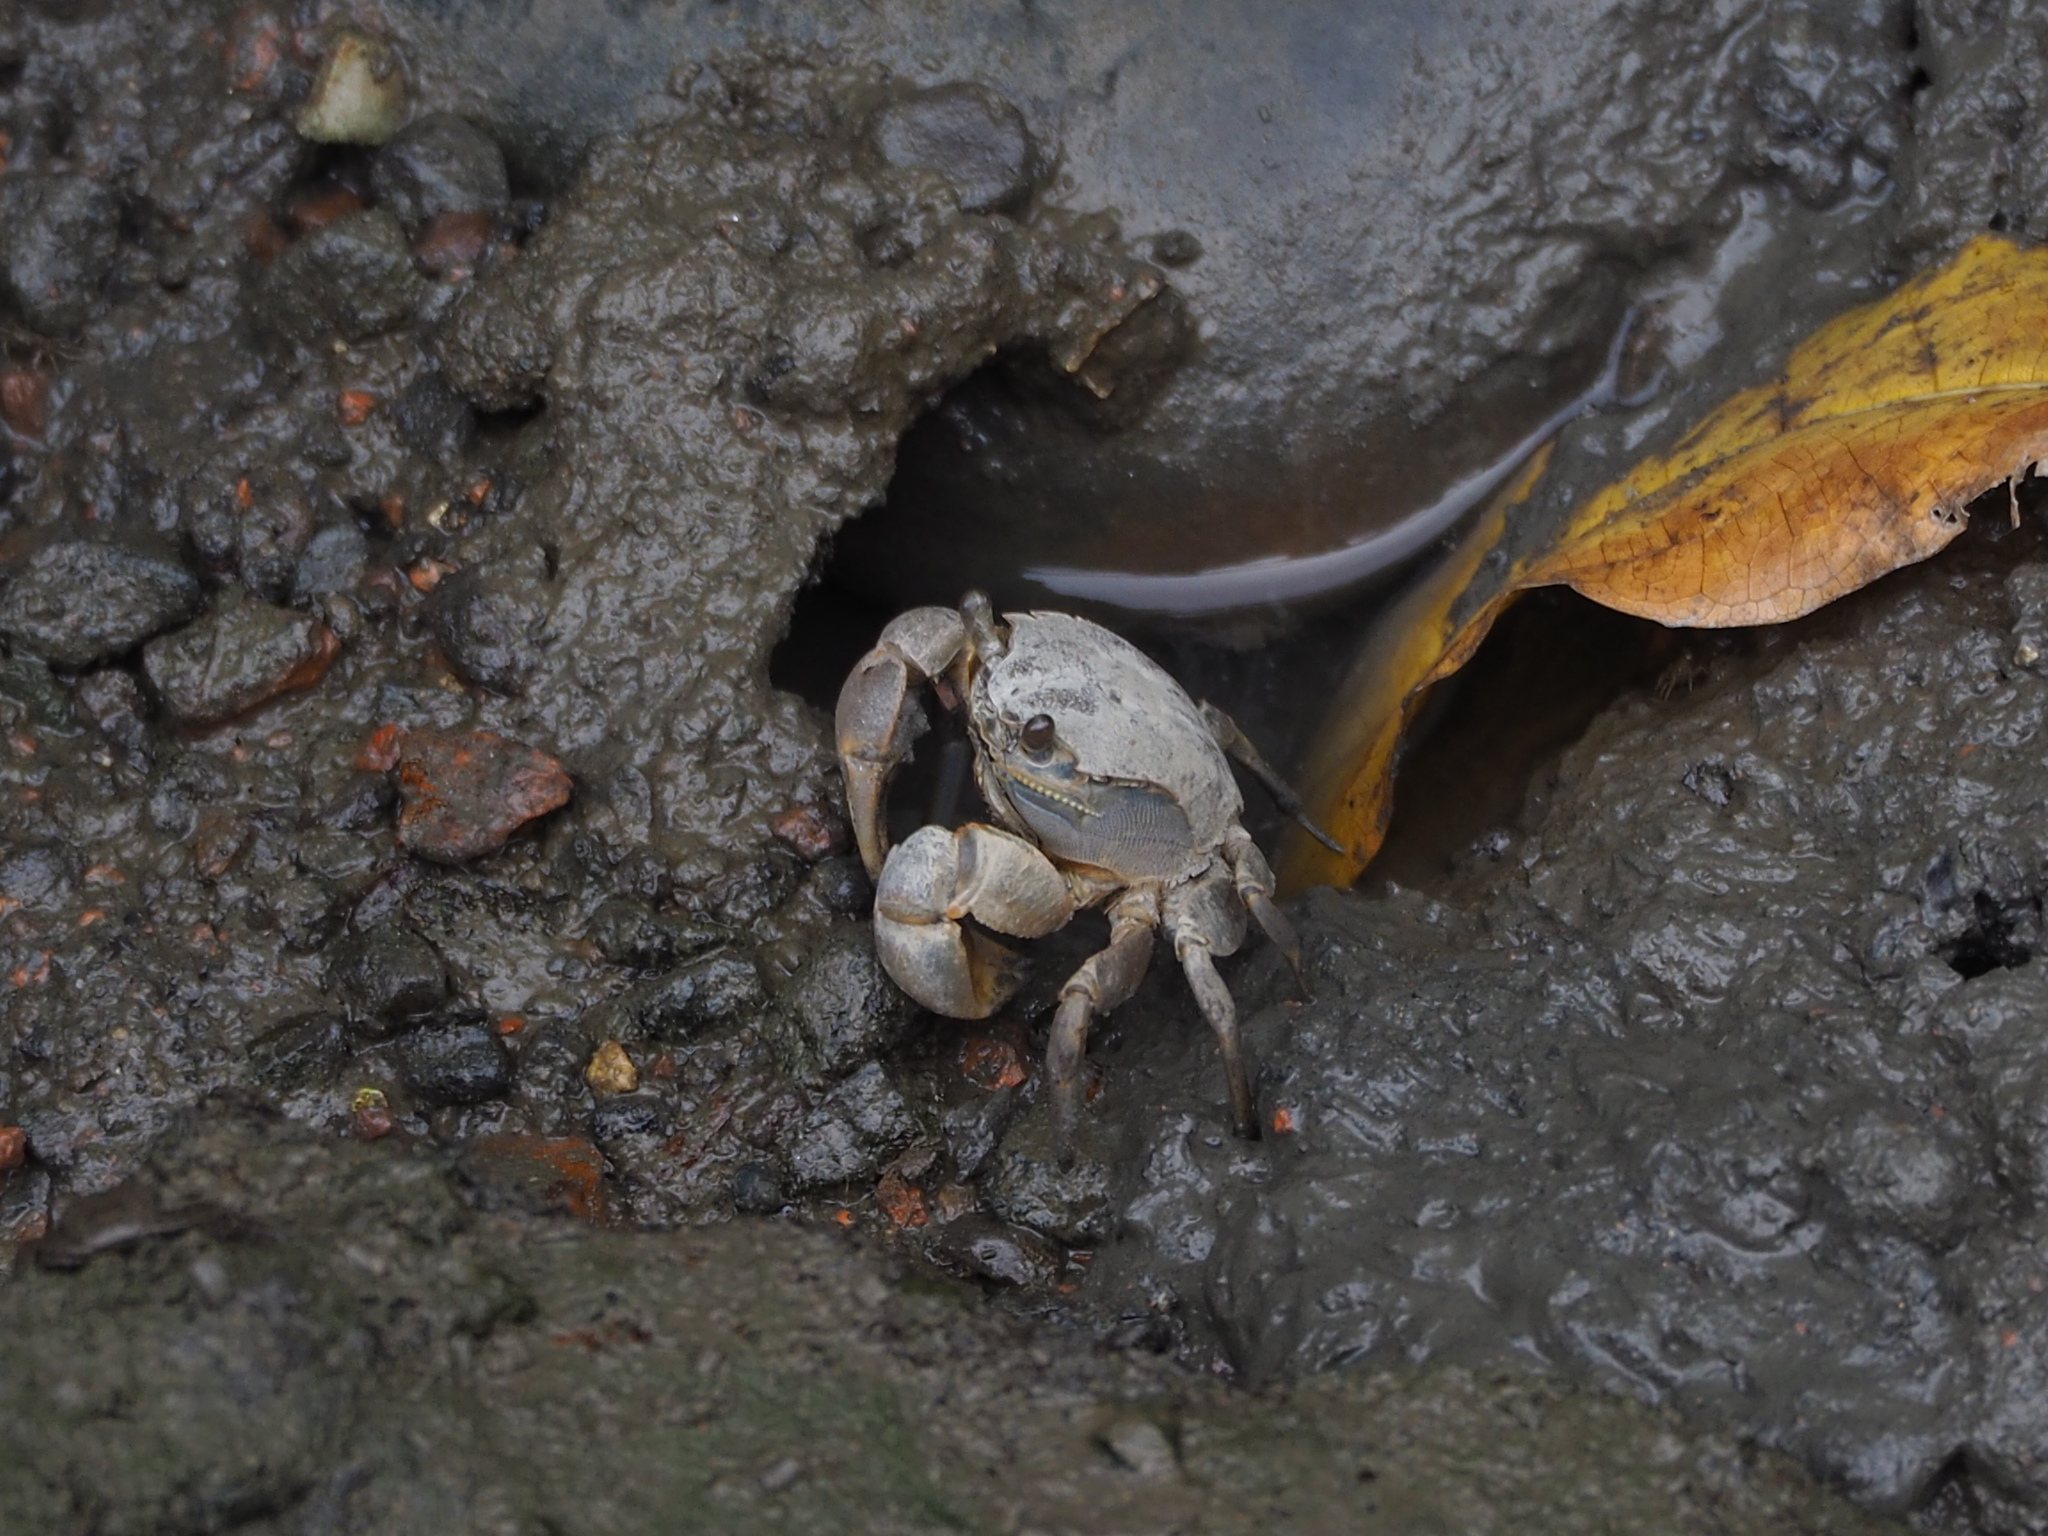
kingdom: Animalia
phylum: Arthropoda
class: Malacostraca
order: Decapoda
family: Varunidae
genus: Helice
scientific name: Helice formosensis
